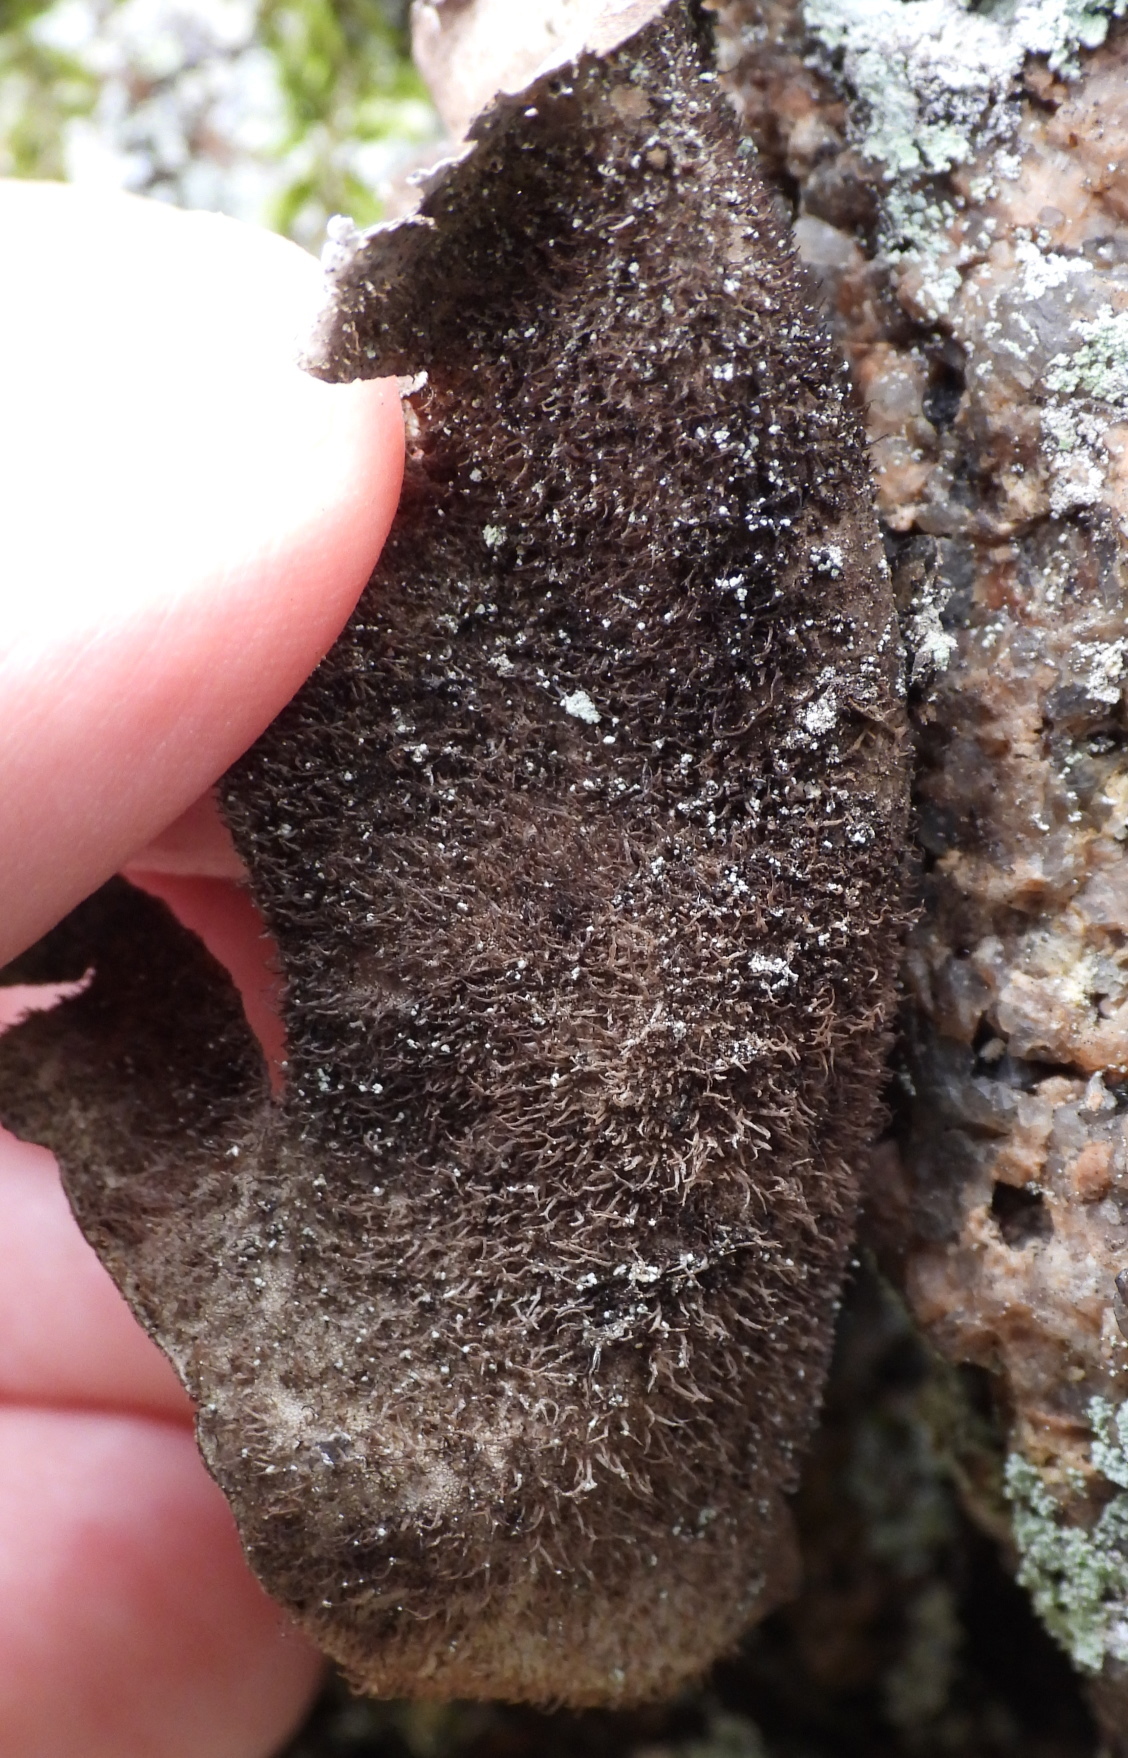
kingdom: Fungi
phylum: Ascomycota
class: Lecanoromycetes
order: Umbilicariales
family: Umbilicariaceae
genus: Umbilicaria
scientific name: Umbilicaria hirsuta
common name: Granulating rocktripe lichen
